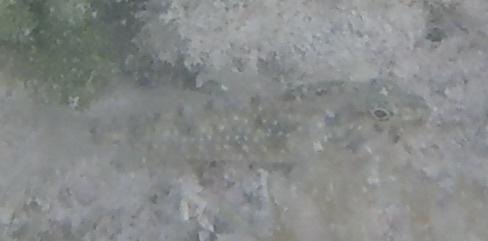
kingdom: Animalia
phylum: Chordata
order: Perciformes
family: Gobiidae
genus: Coryphopterus
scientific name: Coryphopterus glaucofraenum
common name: Bridled goby
